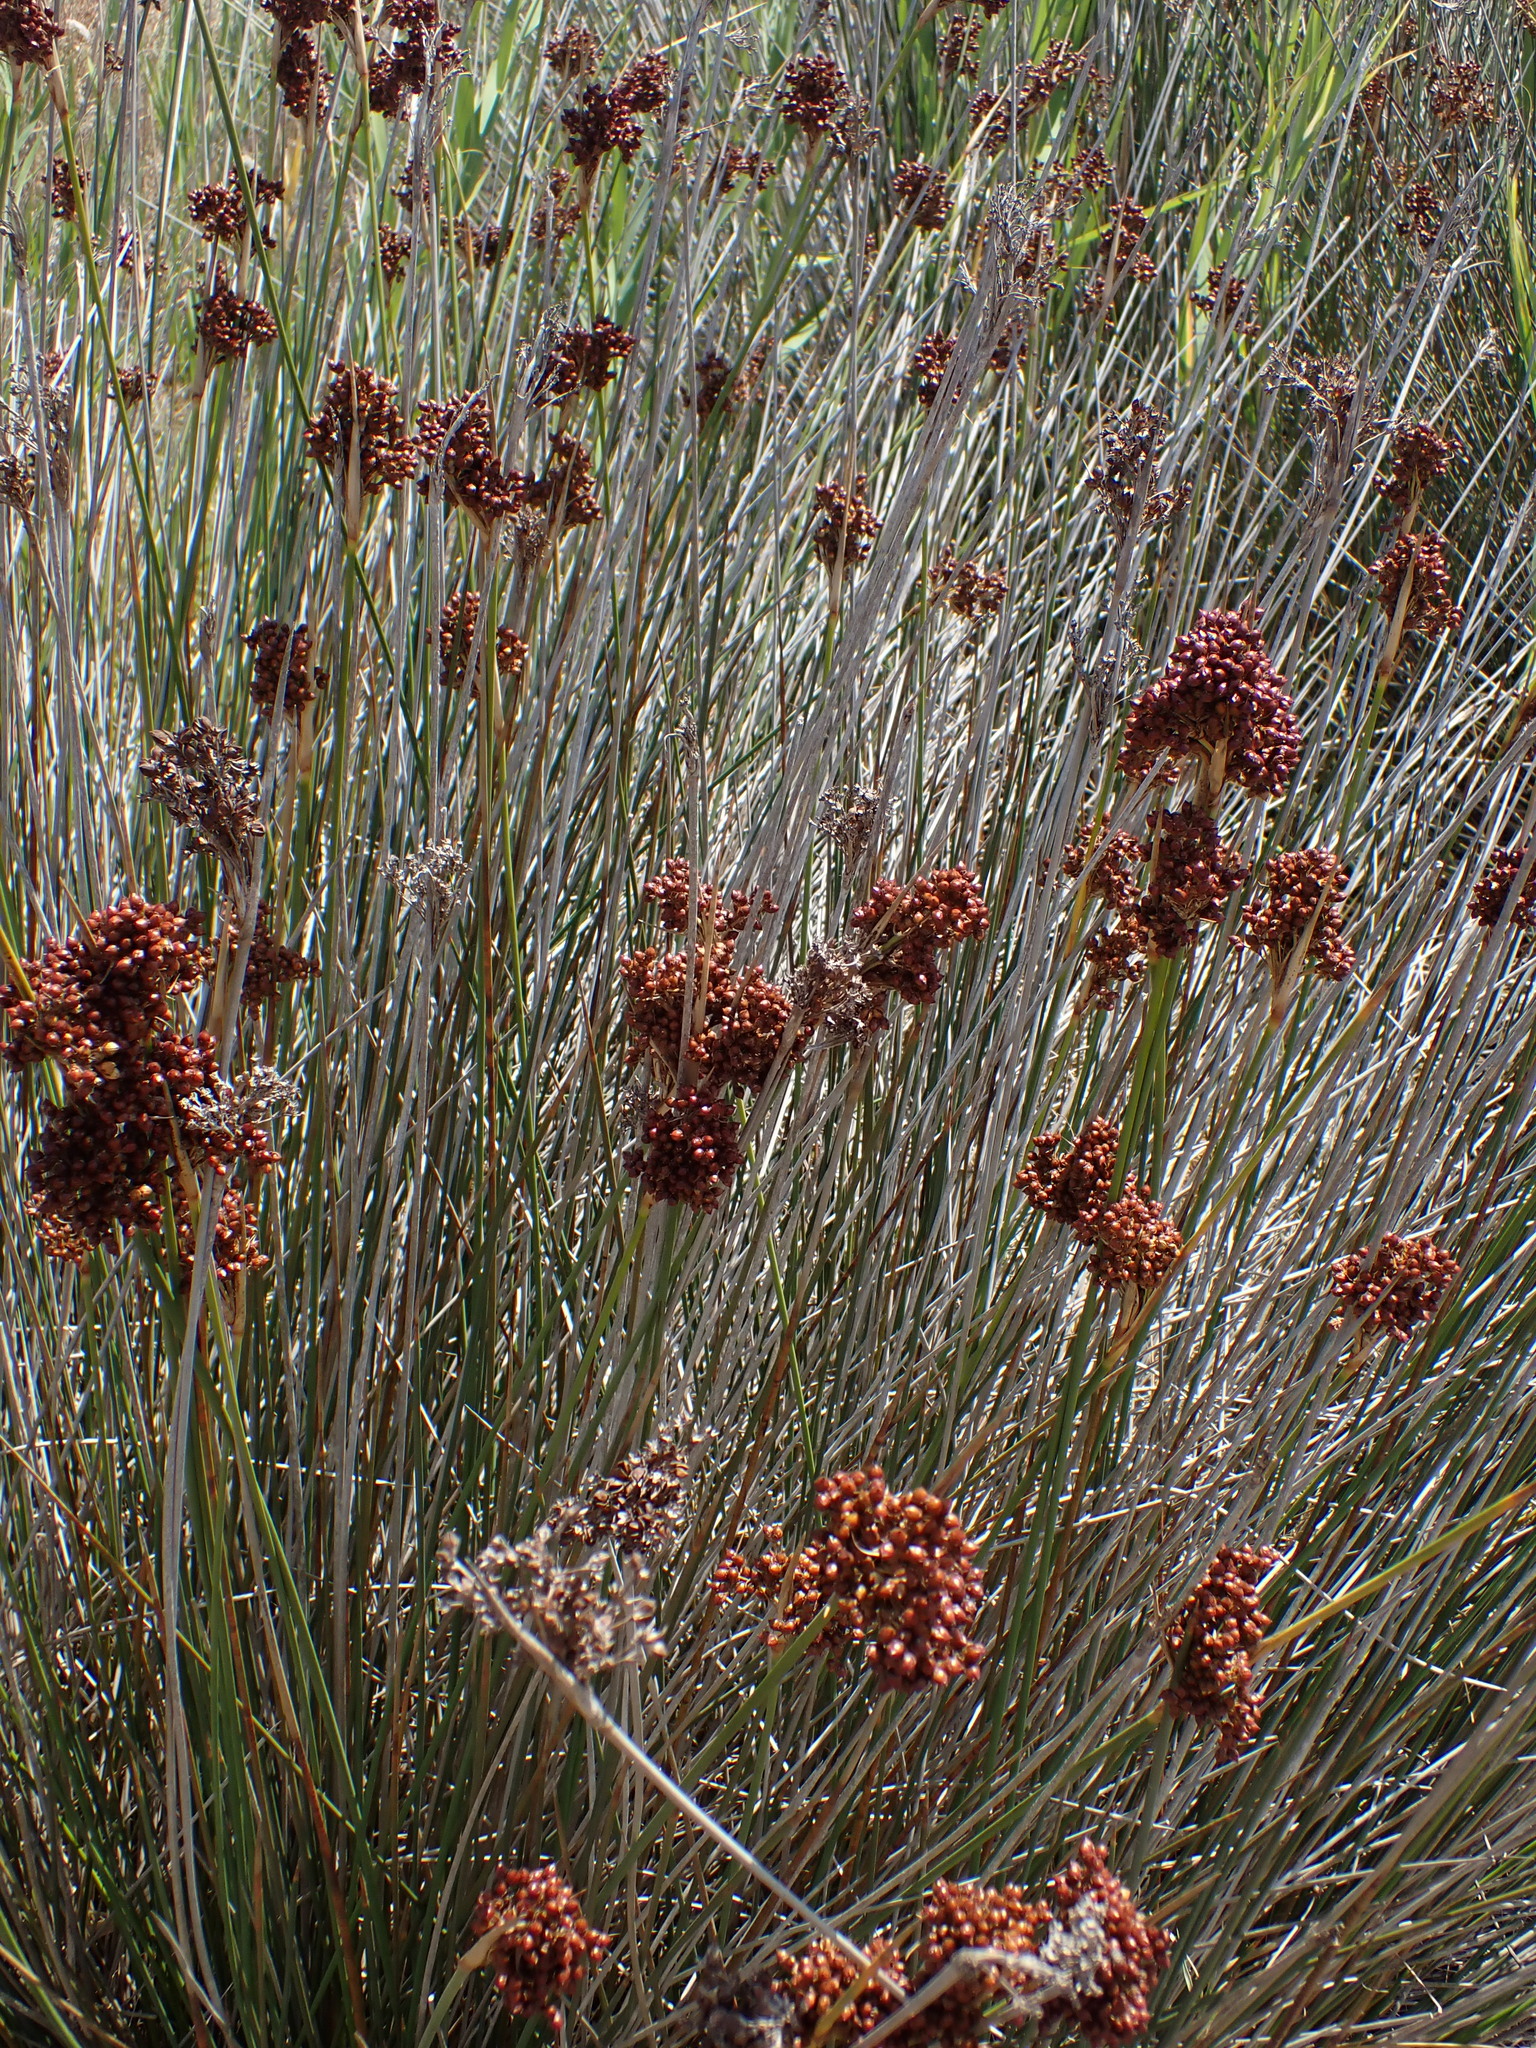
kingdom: Plantae
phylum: Tracheophyta
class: Liliopsida
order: Poales
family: Juncaceae
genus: Juncus
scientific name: Juncus acutus
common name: Sharp rush
